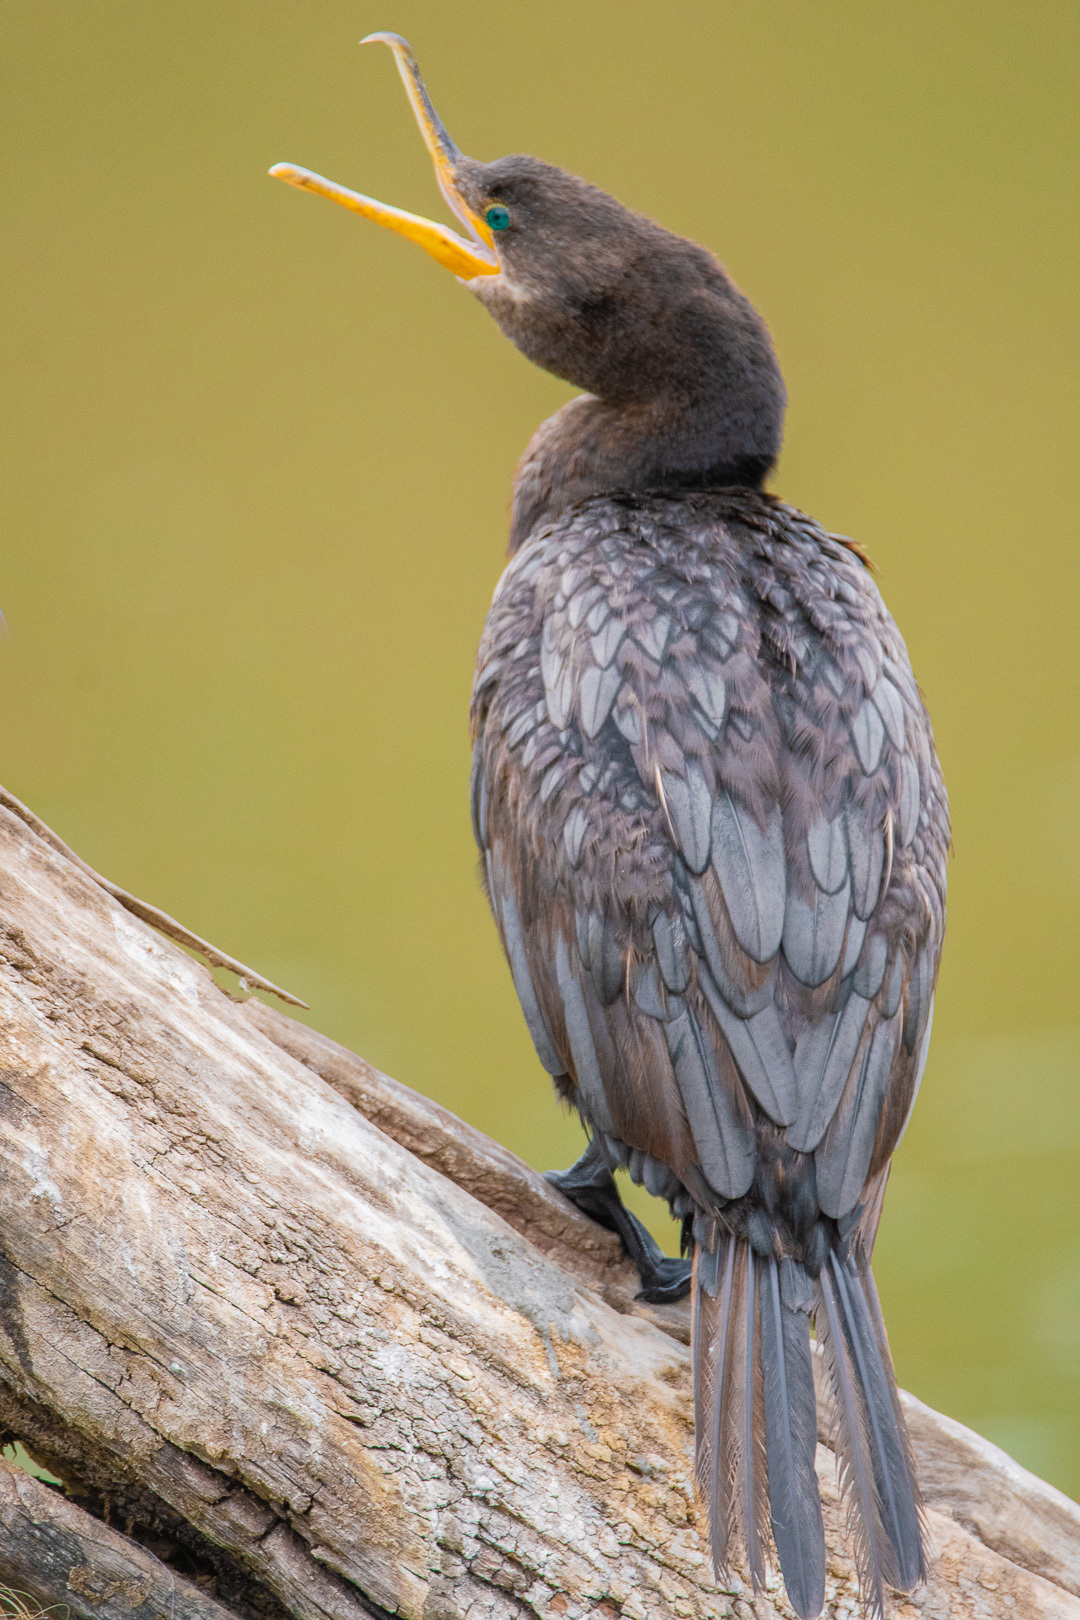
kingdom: Animalia
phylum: Chordata
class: Aves
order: Suliformes
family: Phalacrocoracidae
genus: Phalacrocorax
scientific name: Phalacrocorax brasilianus
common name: Neotropic cormorant
